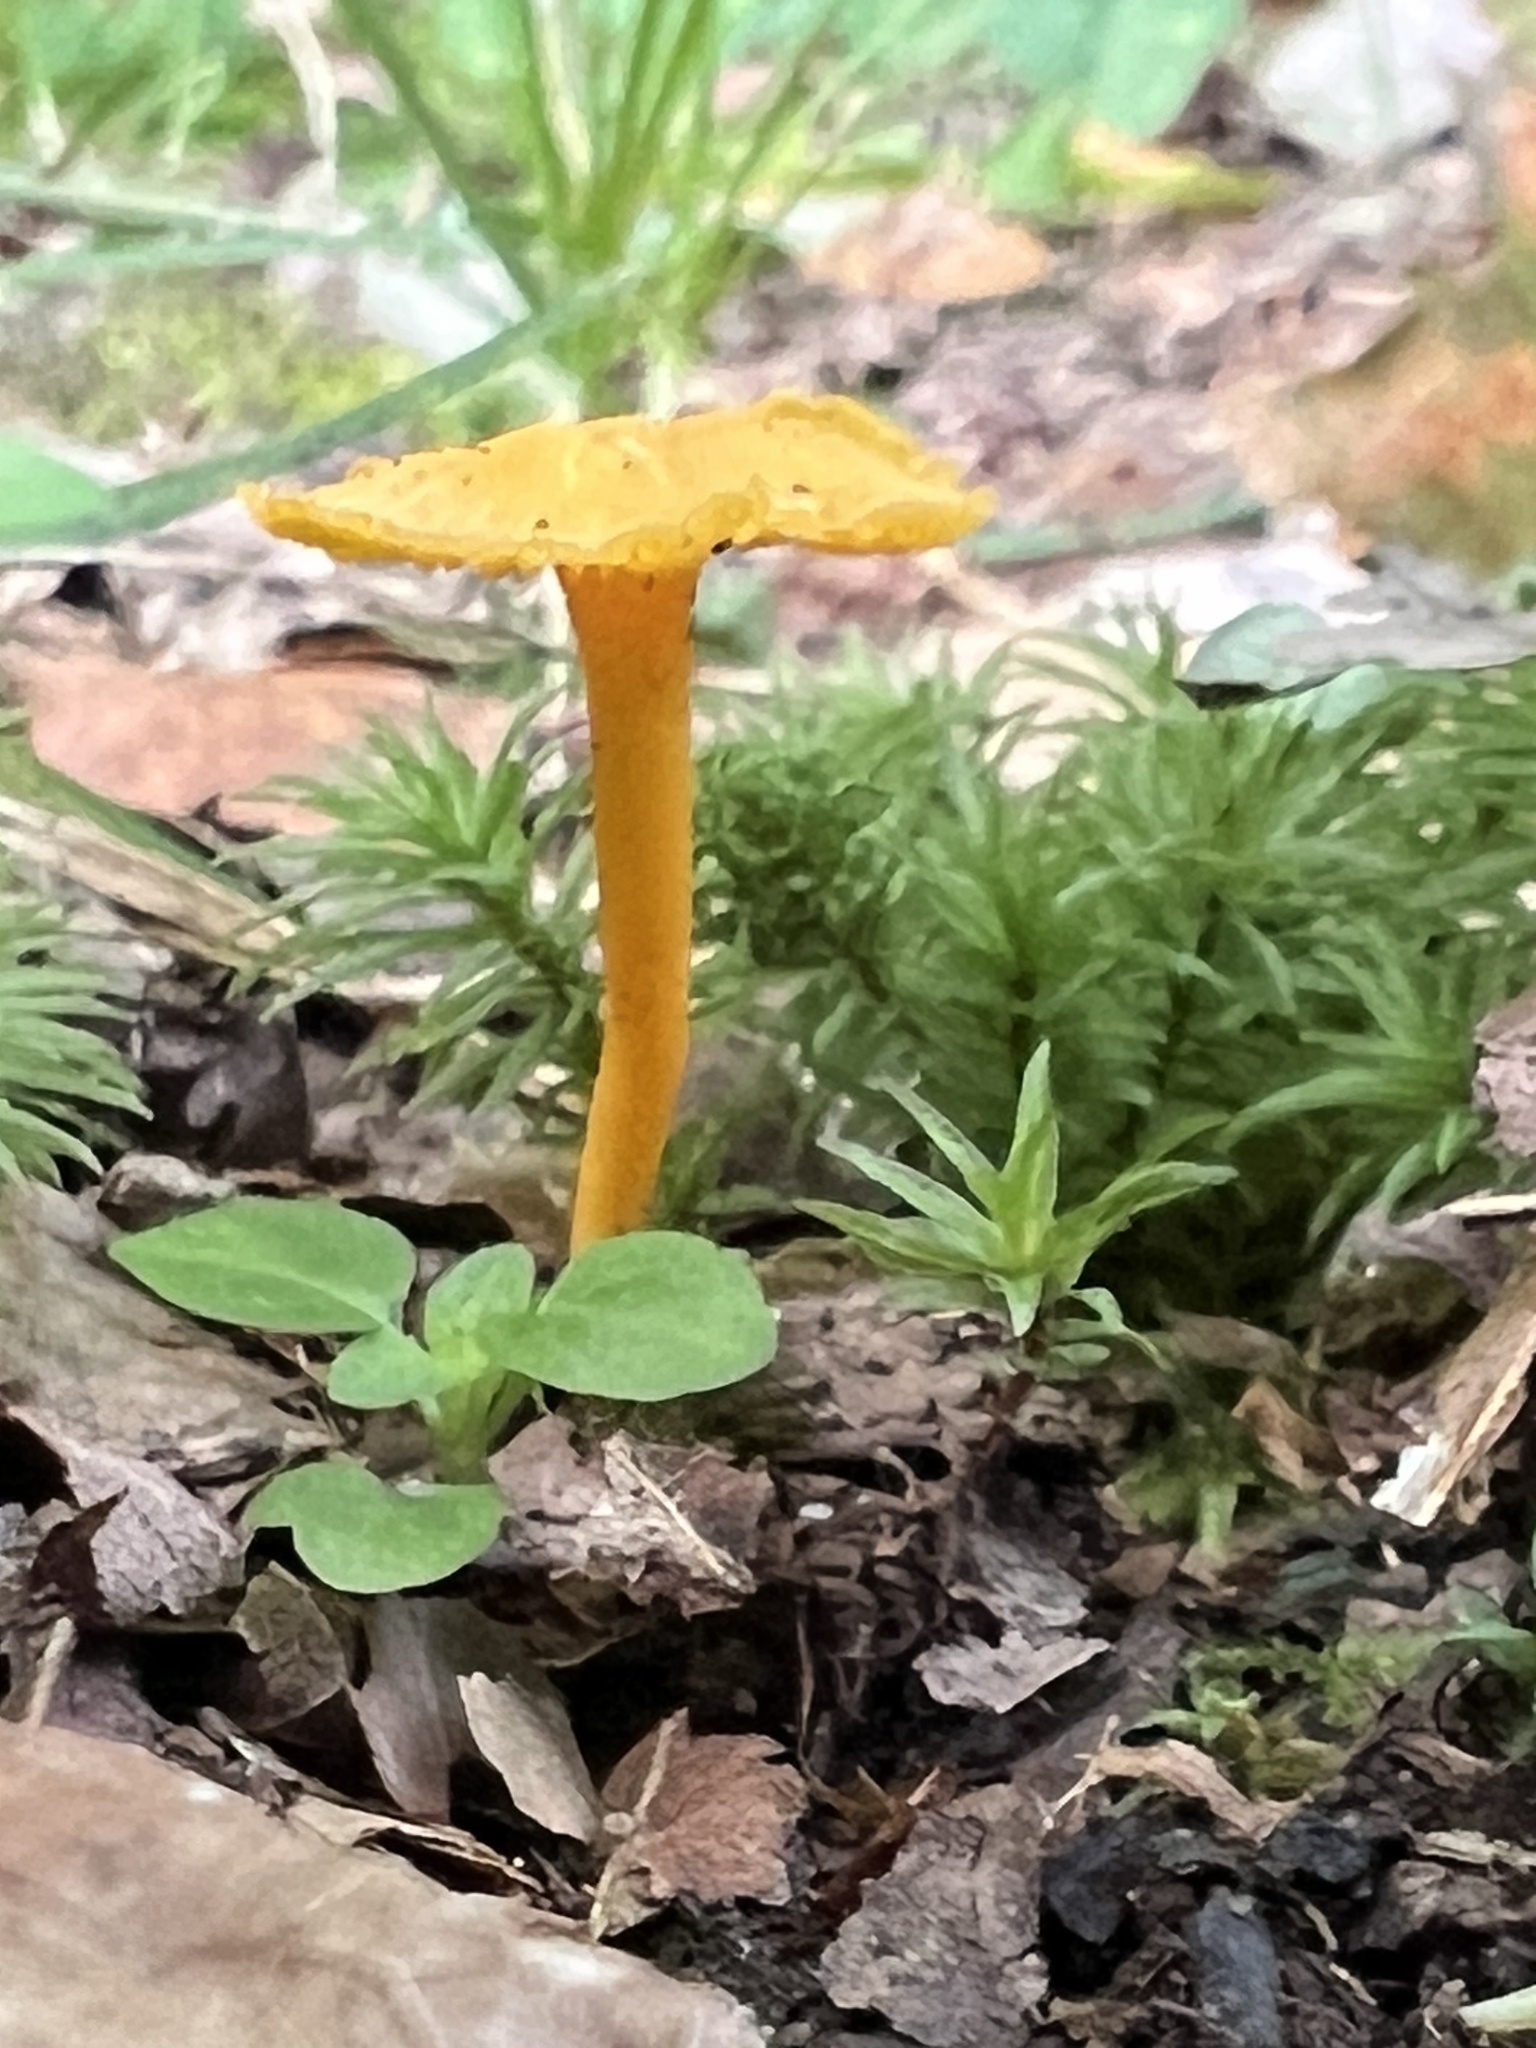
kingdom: Fungi
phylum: Basidiomycota
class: Agaricomycetes
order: Cantharellales
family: Hydnaceae
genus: Cantharellus
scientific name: Cantharellus minor
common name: Small chanterelle
